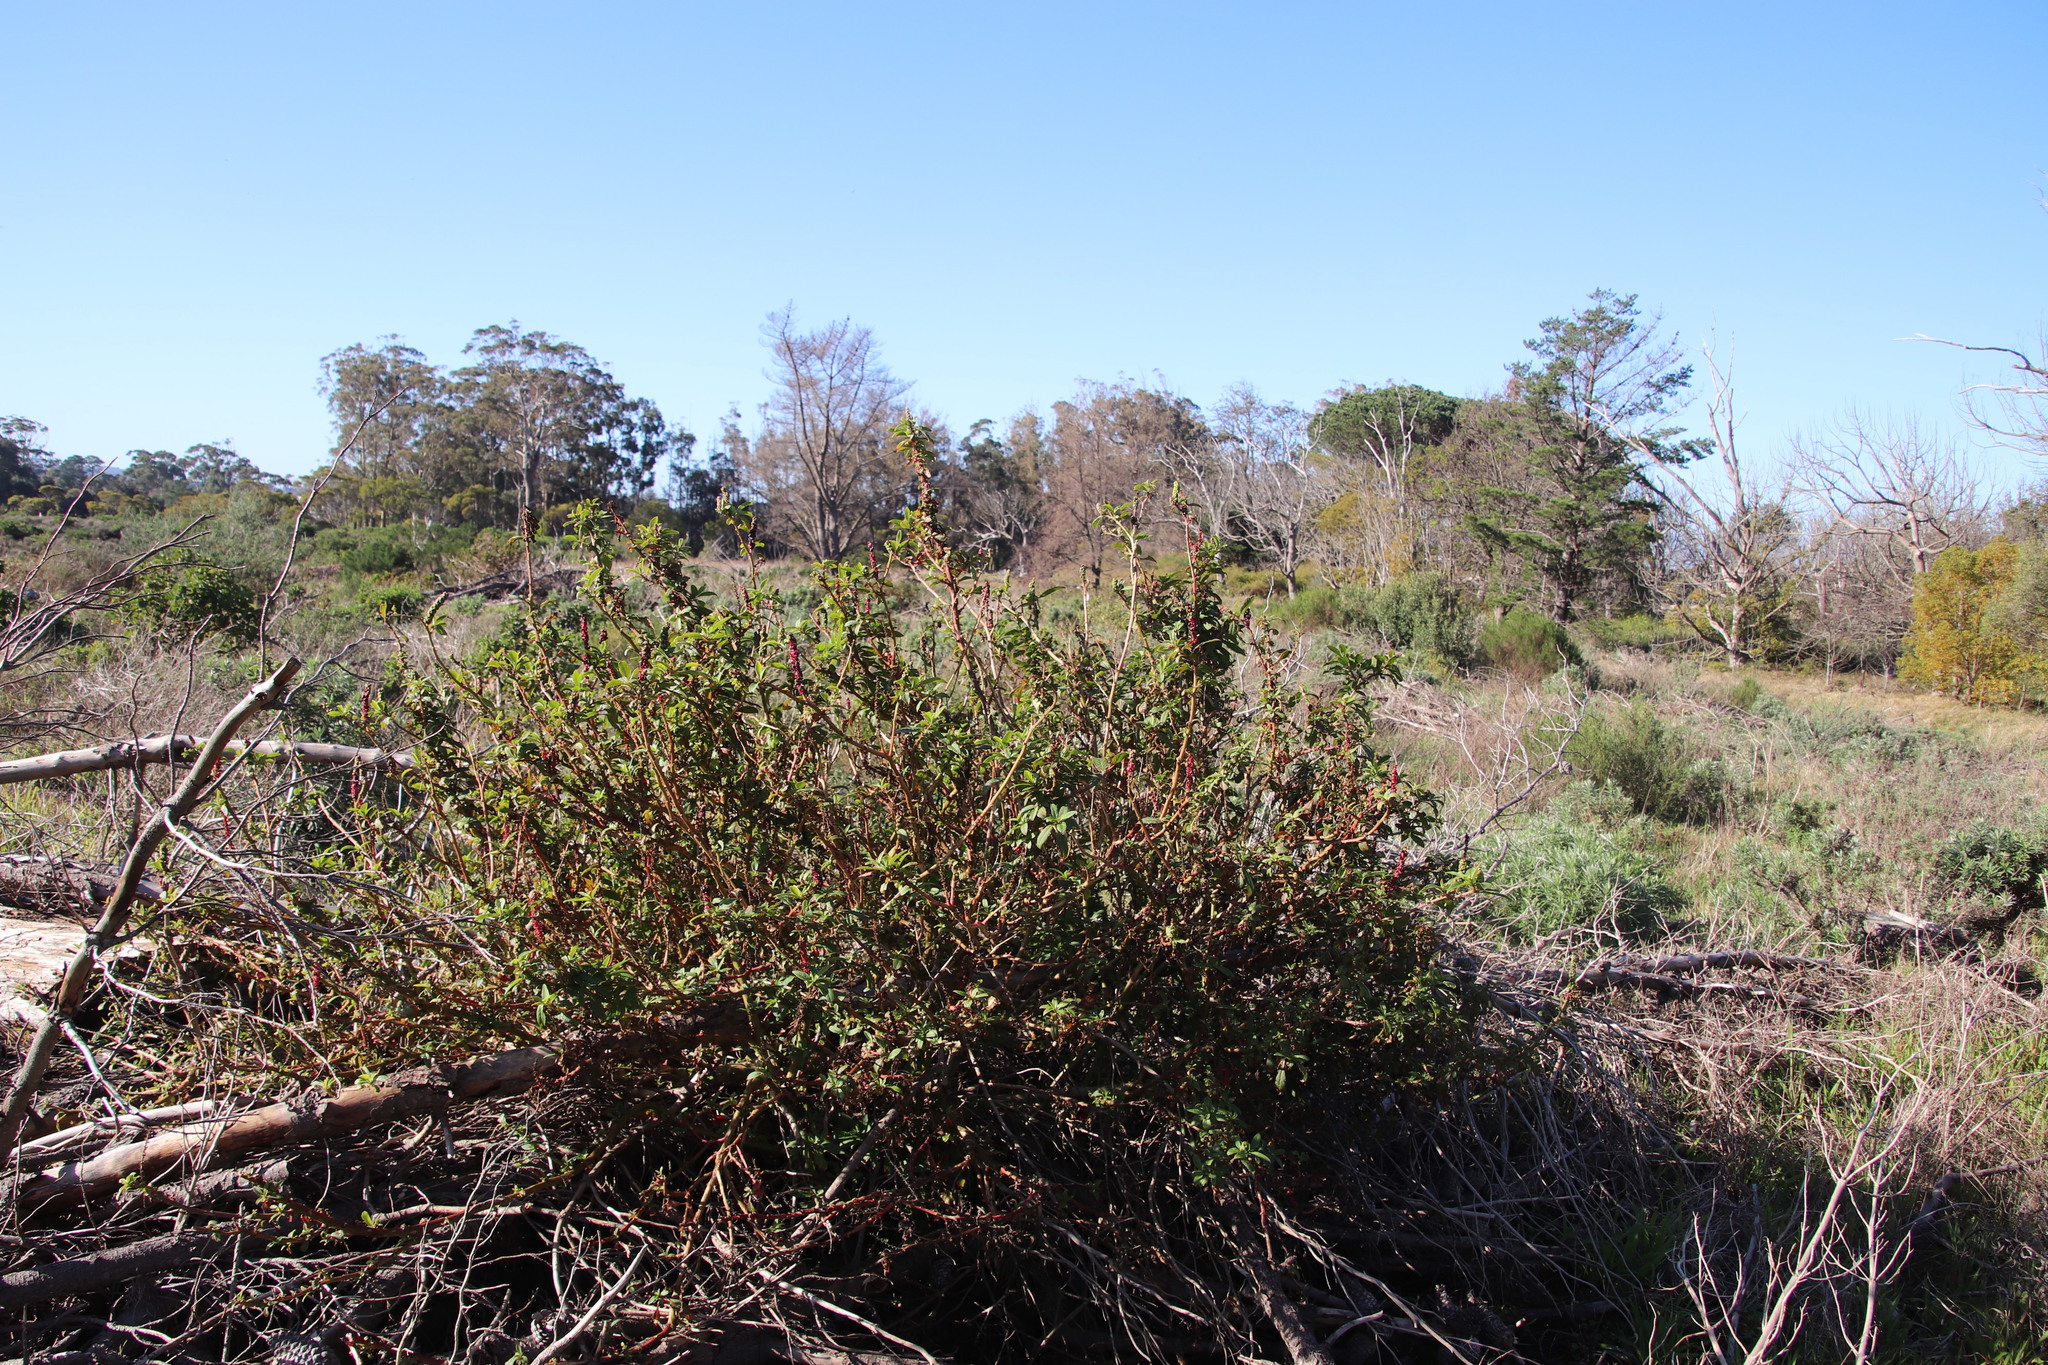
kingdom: Plantae
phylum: Tracheophyta
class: Magnoliopsida
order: Caryophyllales
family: Phytolaccaceae
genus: Phytolacca
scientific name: Phytolacca icosandra
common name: Button pokeweed
